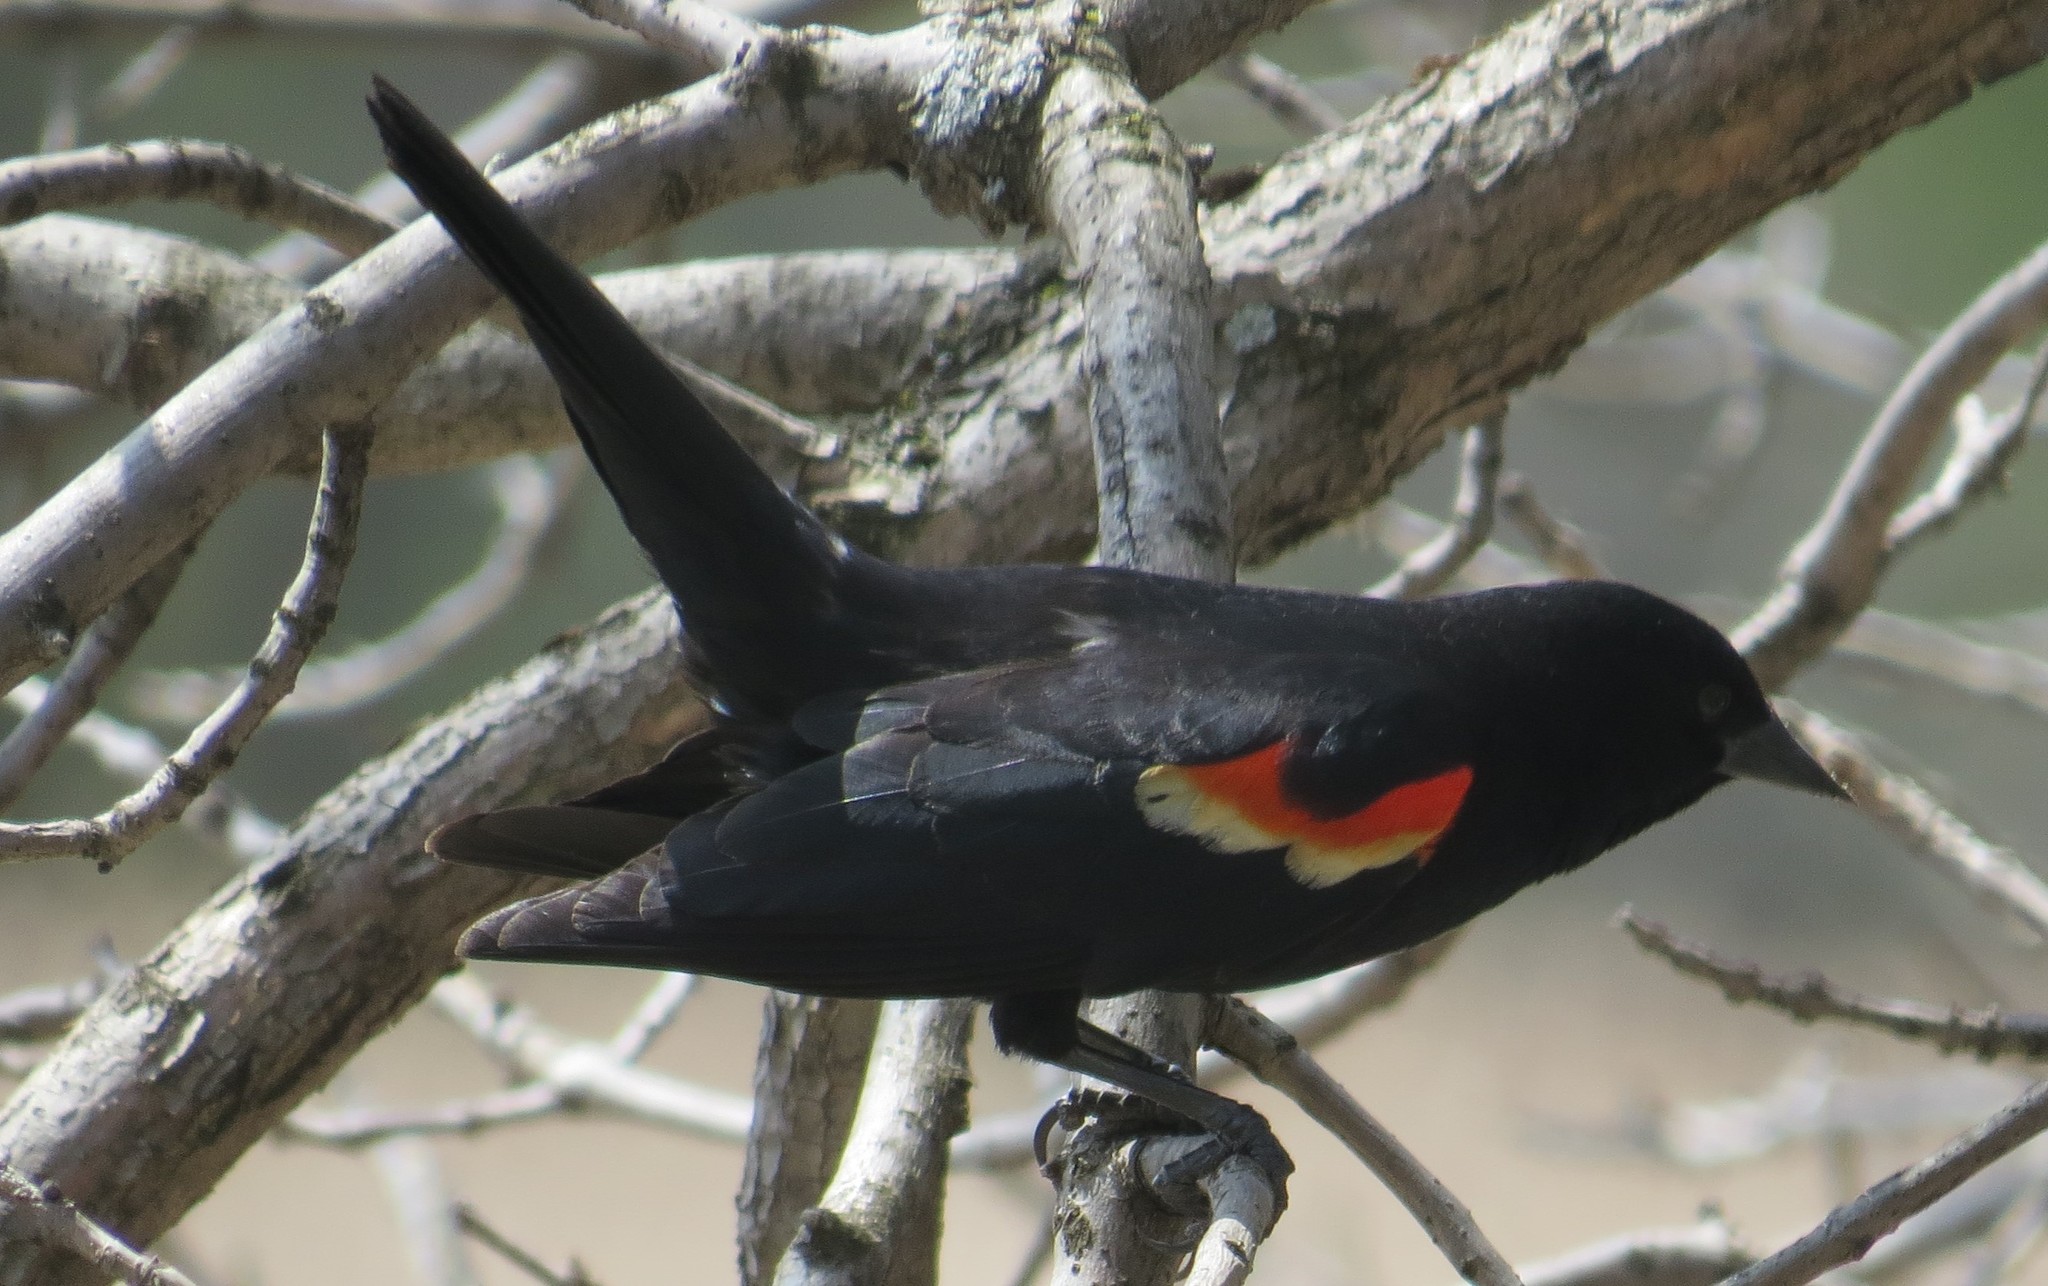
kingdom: Animalia
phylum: Chordata
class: Aves
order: Passeriformes
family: Icteridae
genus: Agelaius
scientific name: Agelaius phoeniceus
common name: Red-winged blackbird
